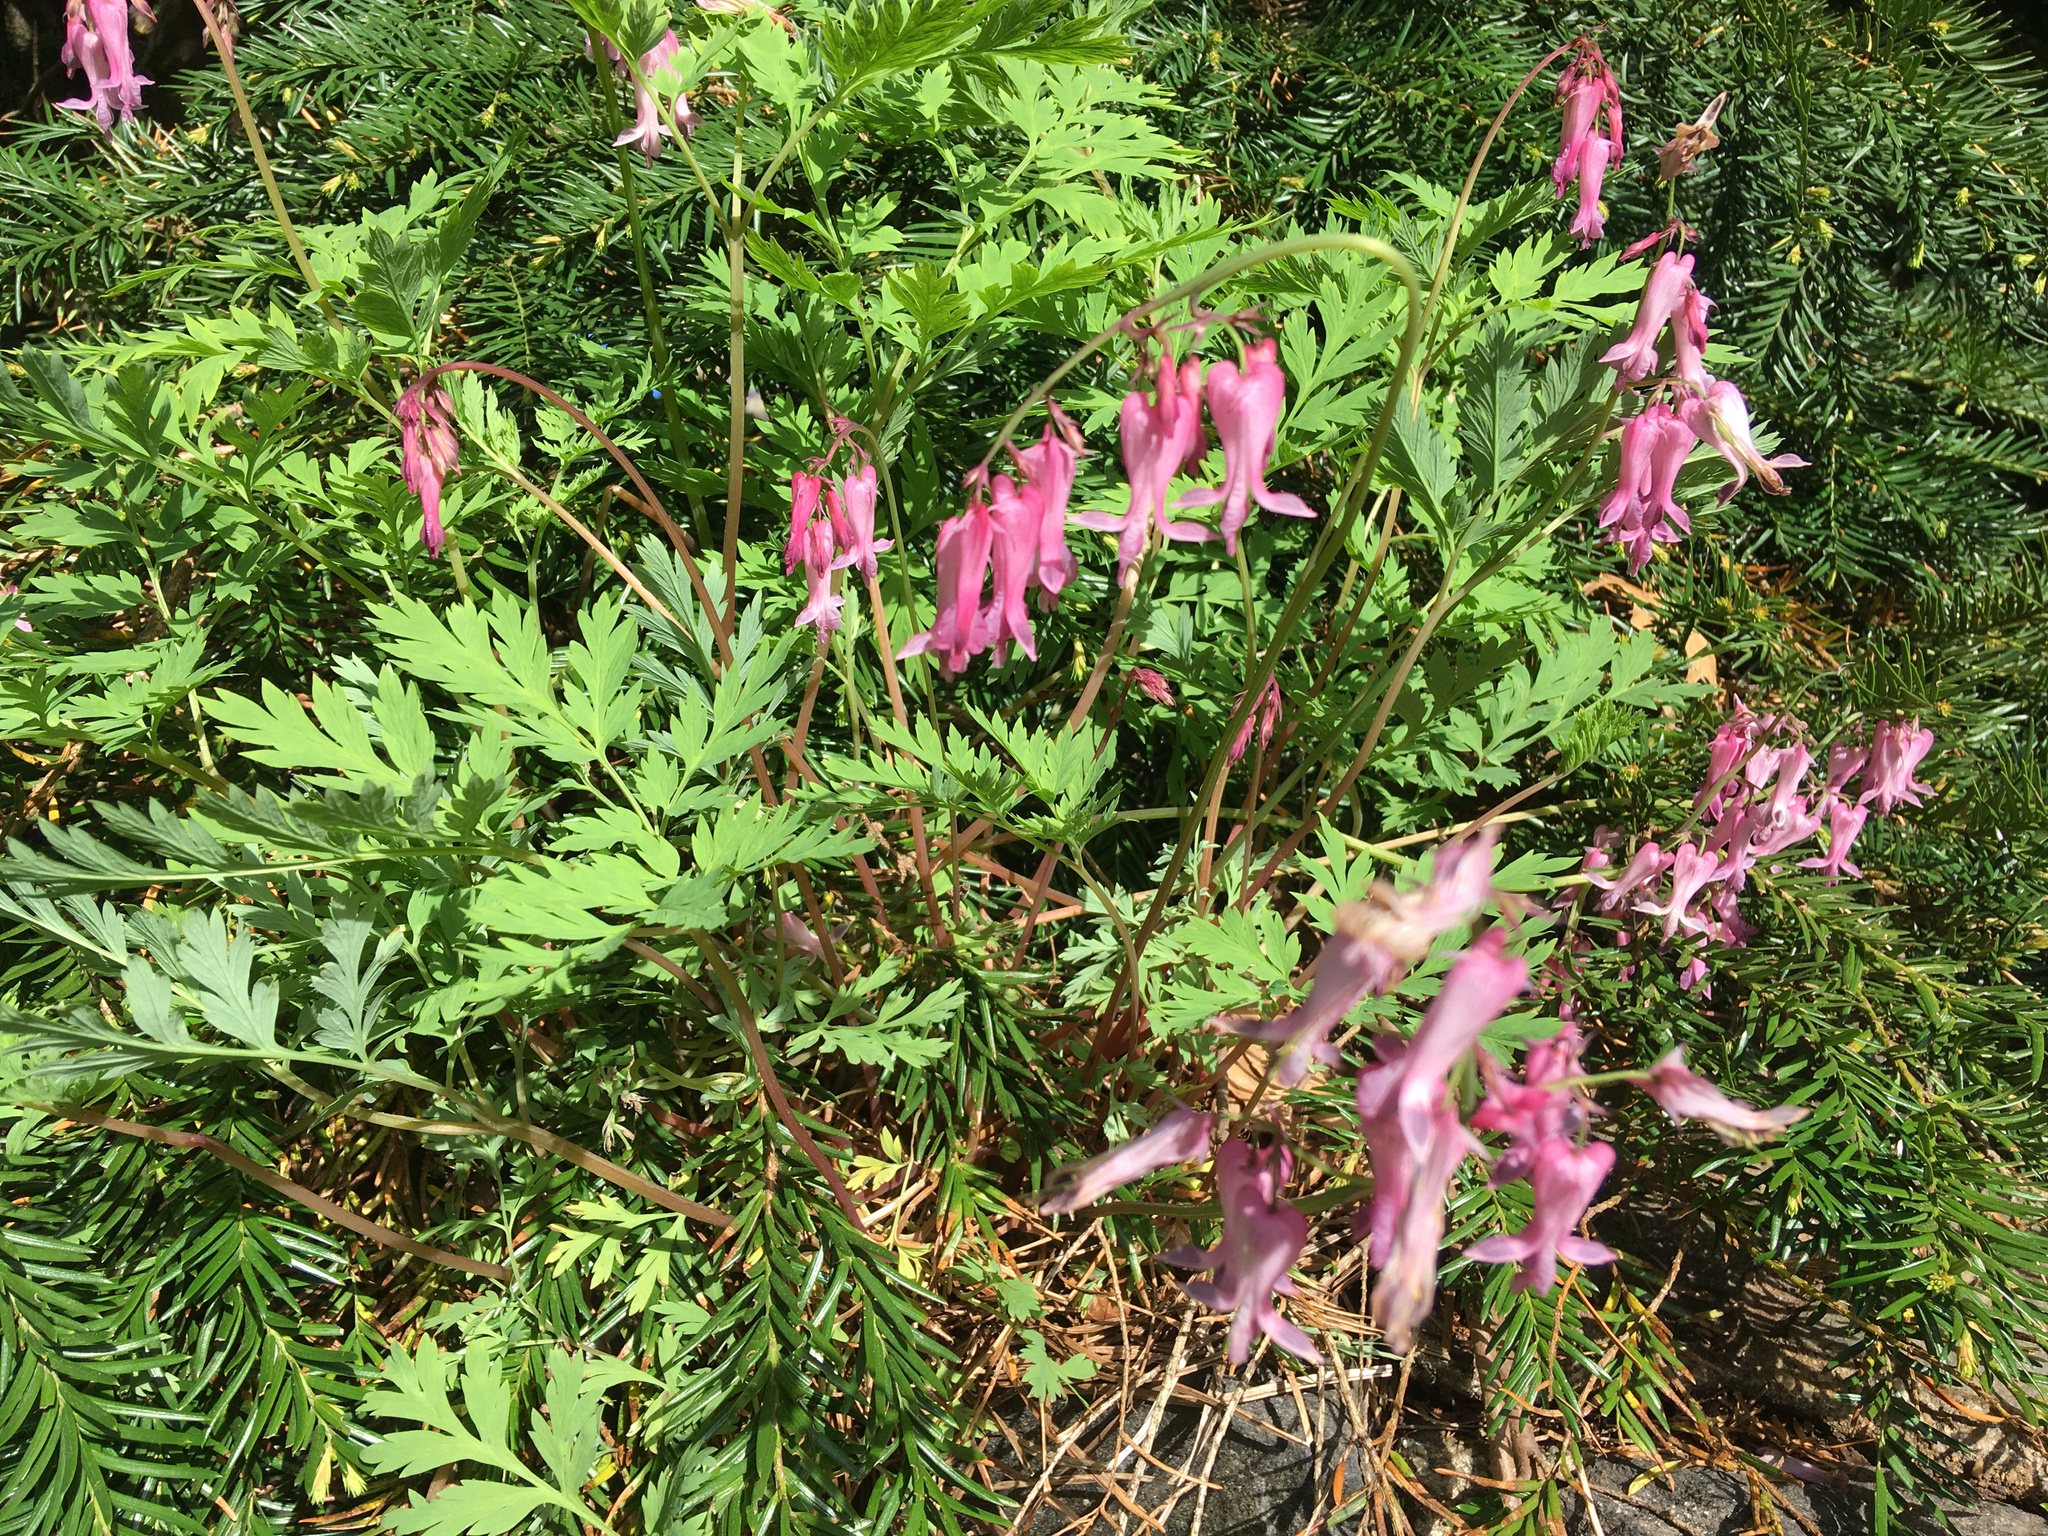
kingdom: Plantae
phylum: Tracheophyta
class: Magnoliopsida
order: Ranunculales
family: Papaveraceae
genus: Dicentra
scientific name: Dicentra eximia
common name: Turkey-corn
